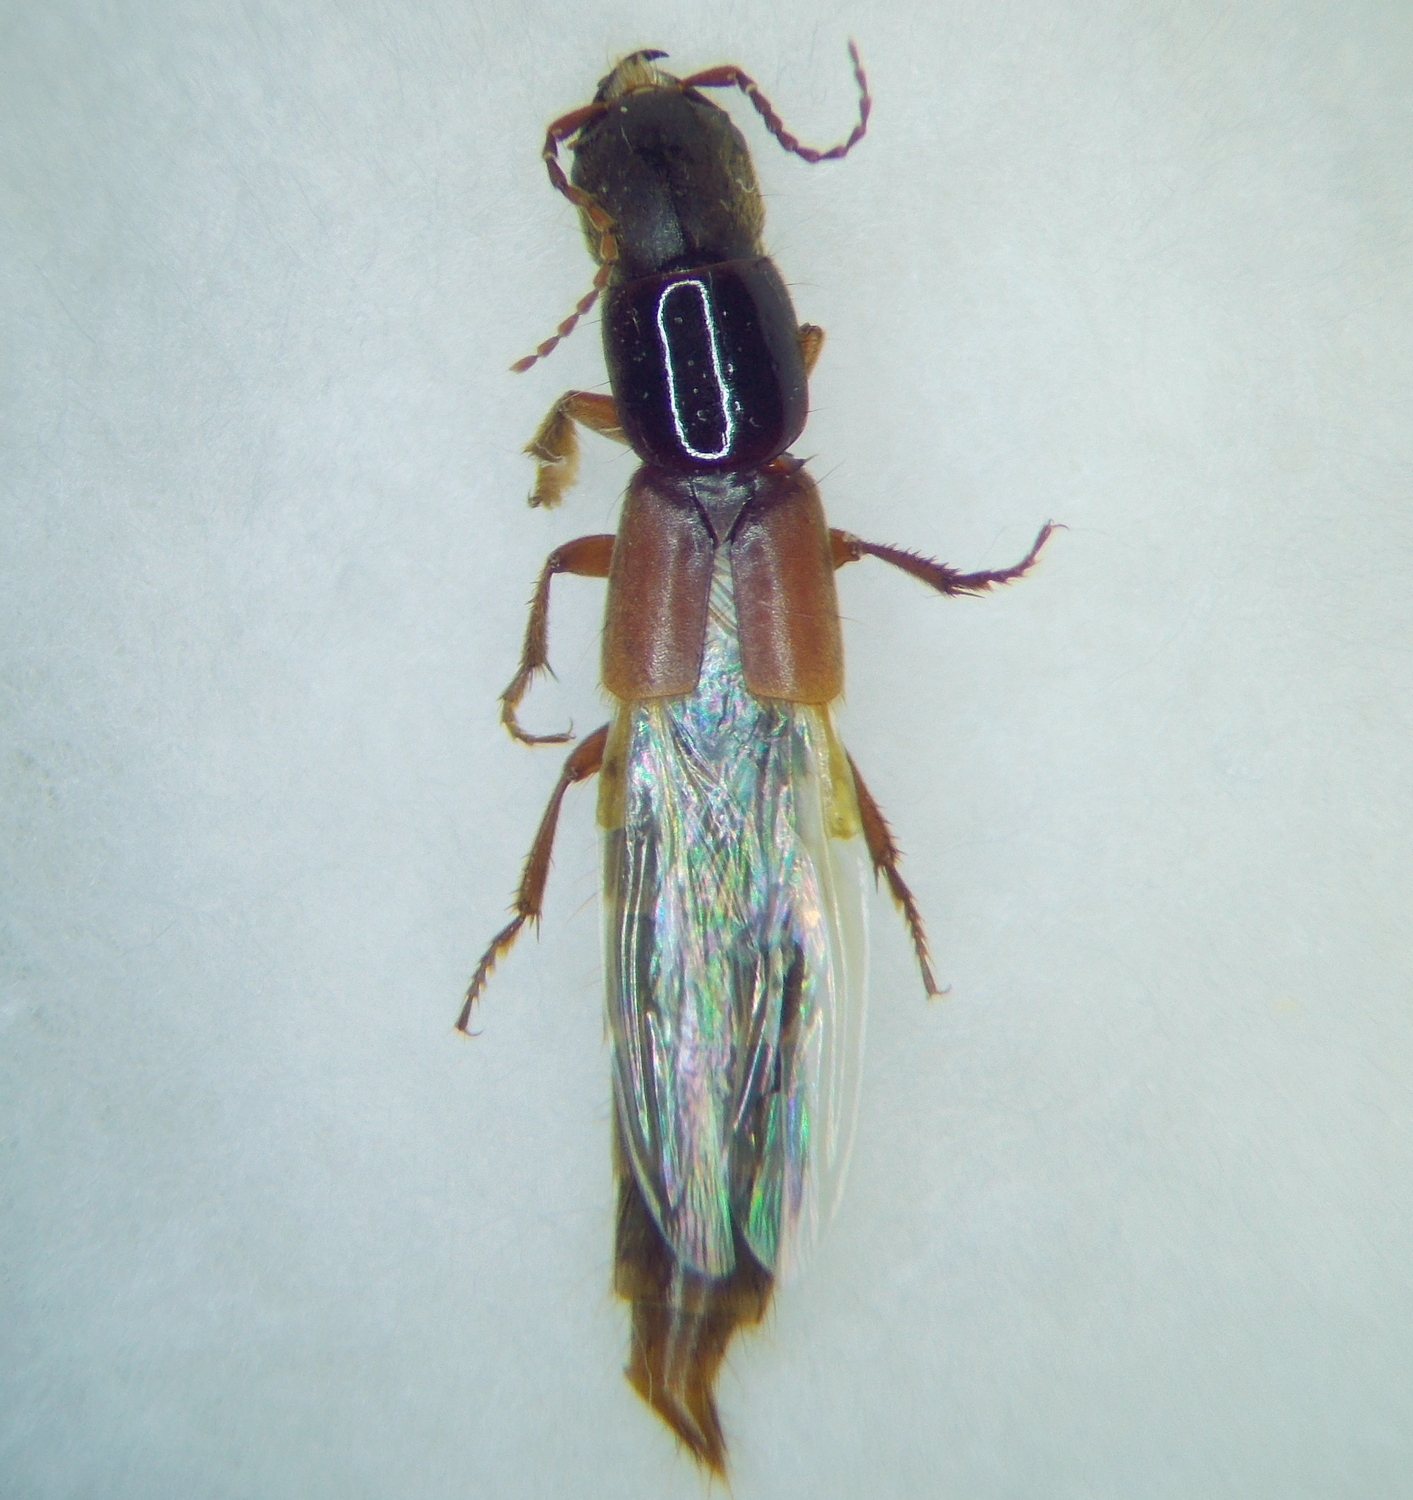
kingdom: Animalia
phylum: Arthropoda
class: Insecta
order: Coleoptera
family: Staphylinidae
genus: Platyprosopus
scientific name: Platyprosopus elongatus
